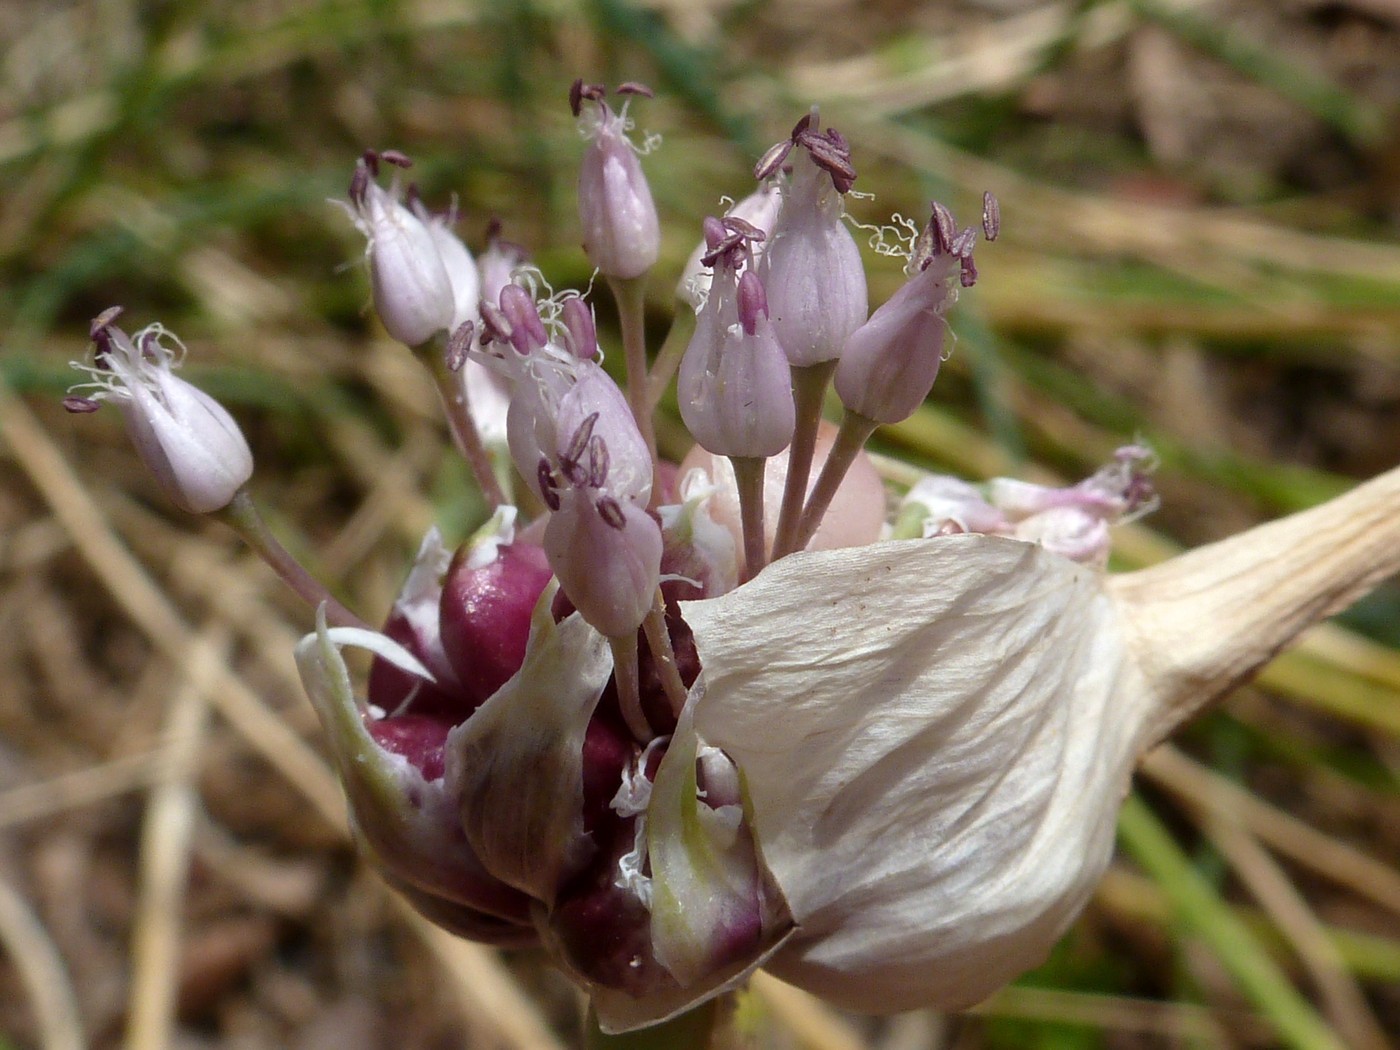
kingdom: Plantae
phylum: Tracheophyta
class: Liliopsida
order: Asparagales
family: Amaryllidaceae
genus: Allium
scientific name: Allium sativum
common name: Garlic
